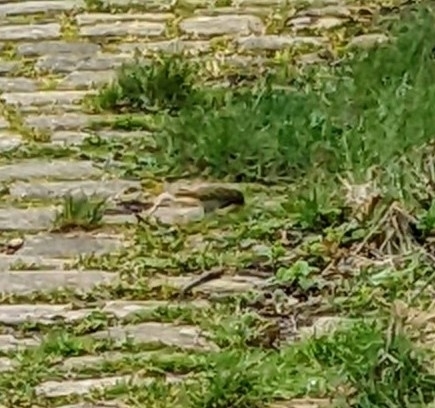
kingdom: Animalia
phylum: Chordata
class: Aves
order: Passeriformes
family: Muscicapidae
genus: Erithacus
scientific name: Erithacus rubecula
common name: European robin
